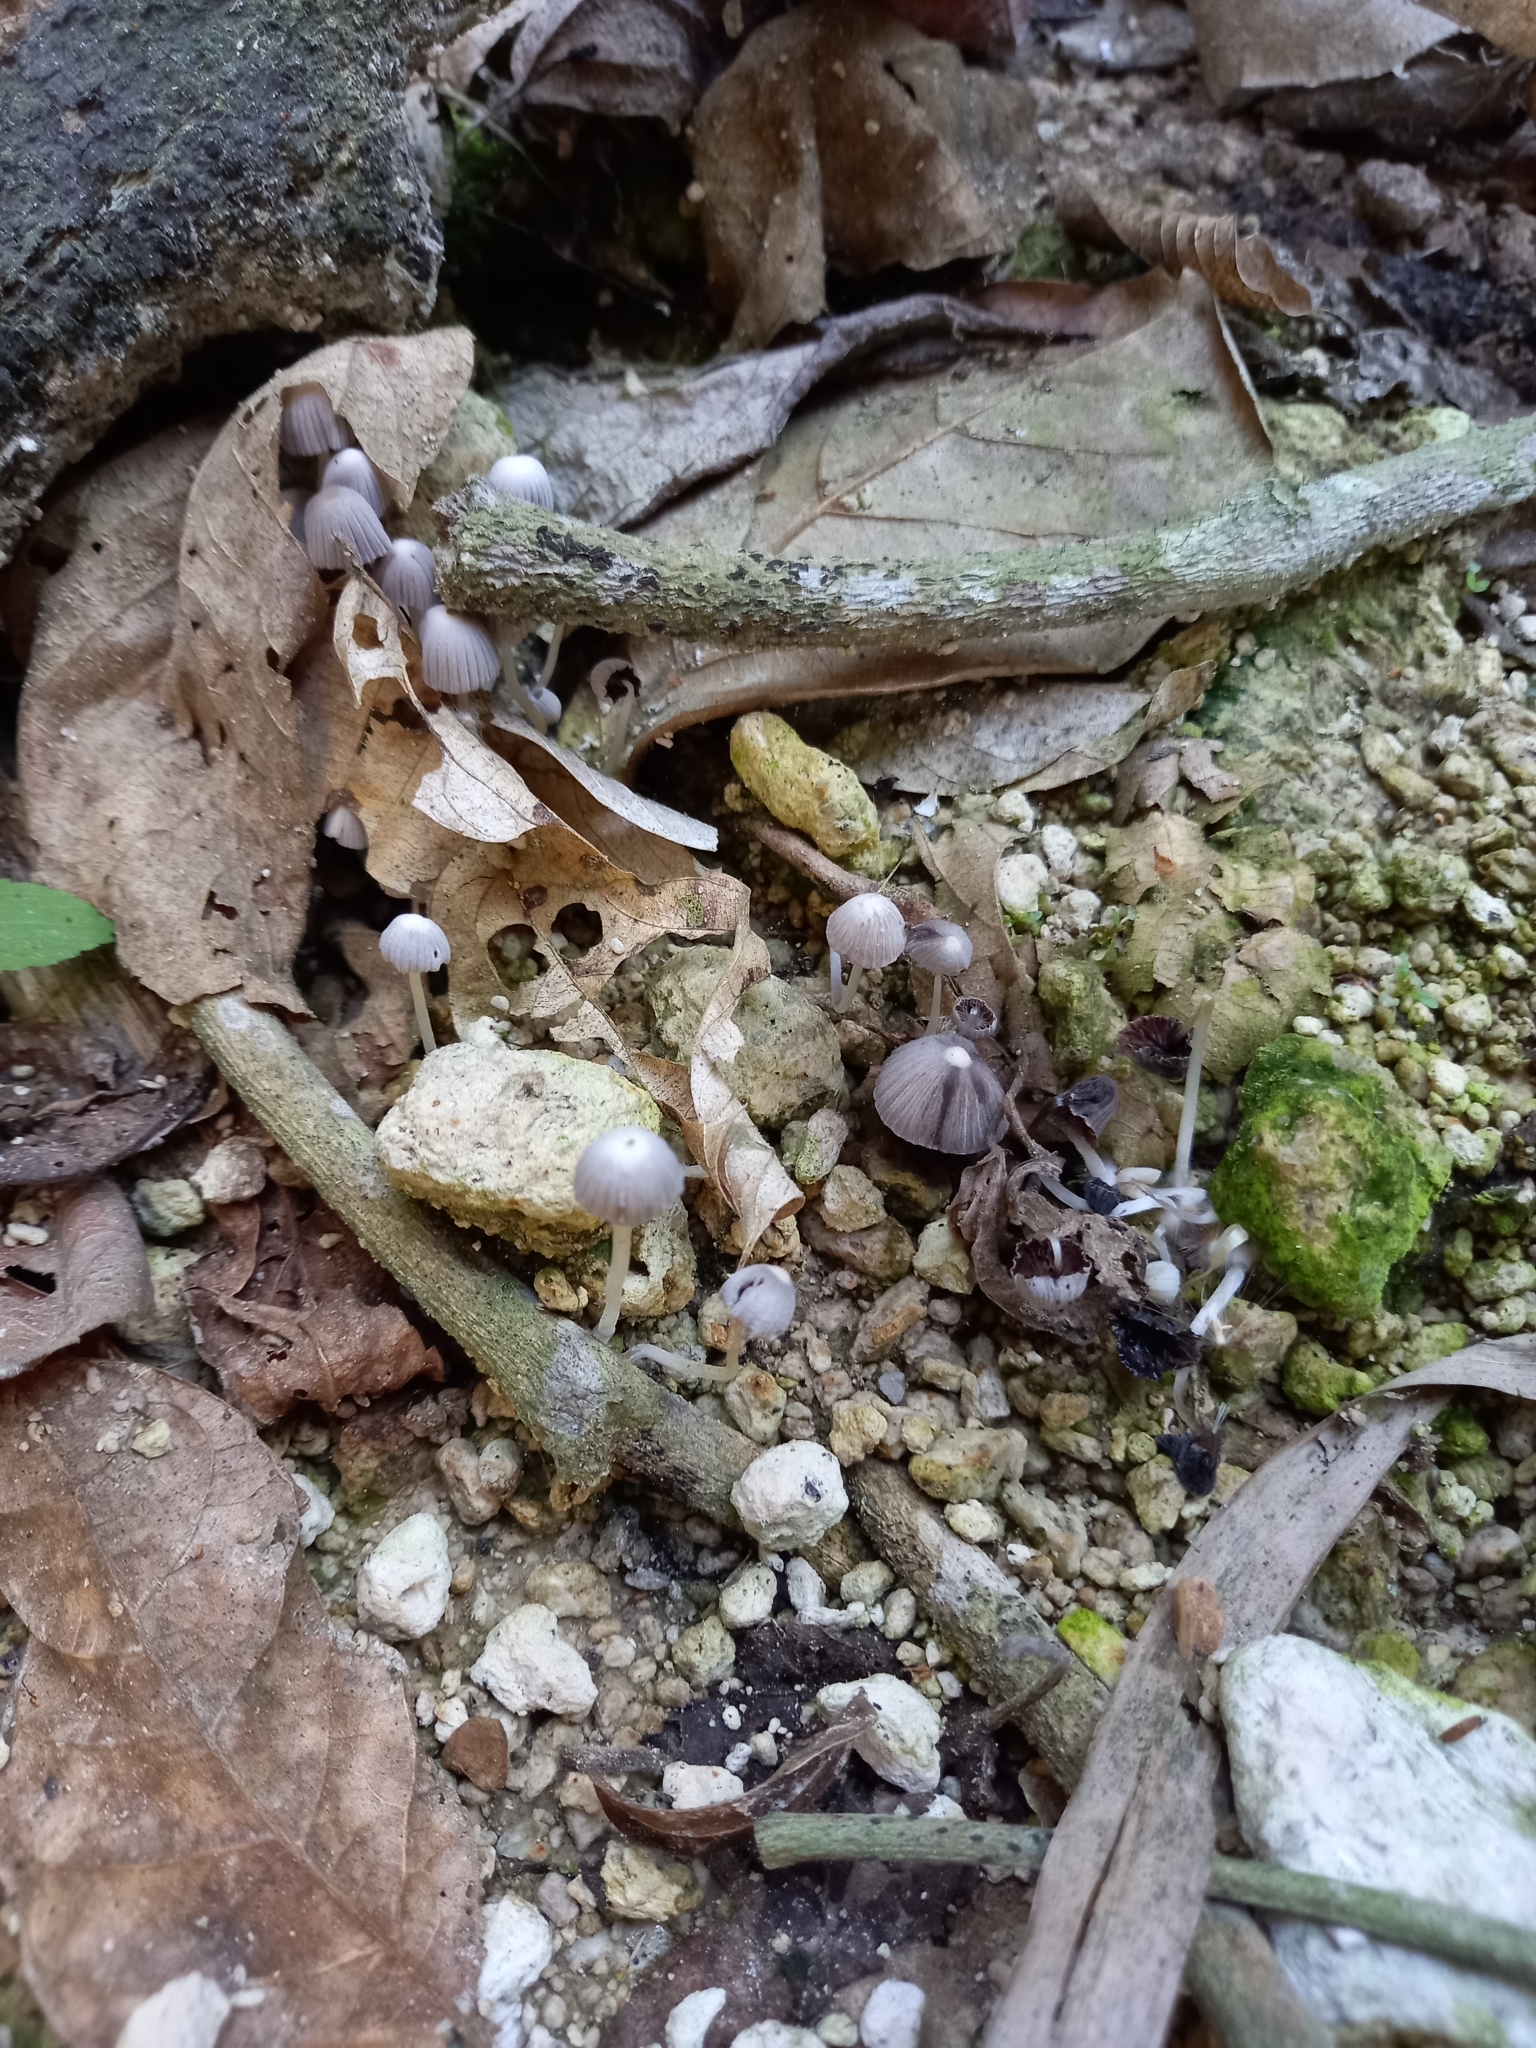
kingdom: Fungi
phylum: Basidiomycota
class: Agaricomycetes
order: Agaricales
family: Psathyrellaceae
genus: Coprinellus
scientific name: Coprinellus disseminatus
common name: Fairies' bonnets
